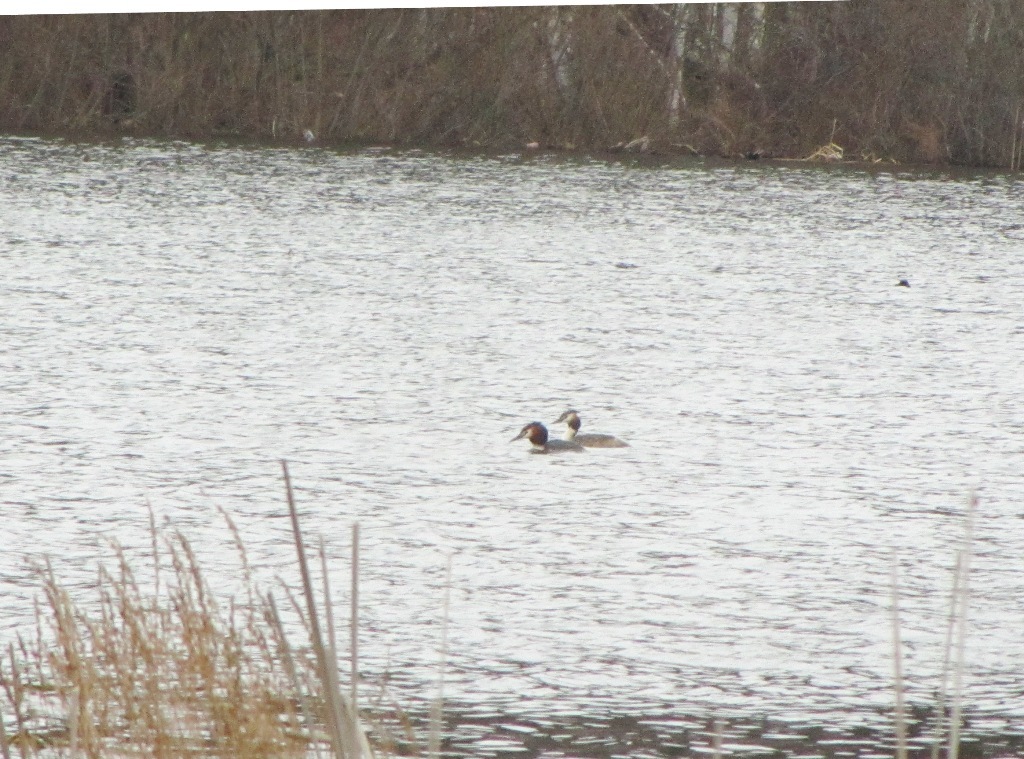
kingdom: Animalia
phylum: Chordata
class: Aves
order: Podicipediformes
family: Podicipedidae
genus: Podiceps
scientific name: Podiceps cristatus
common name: Great crested grebe
